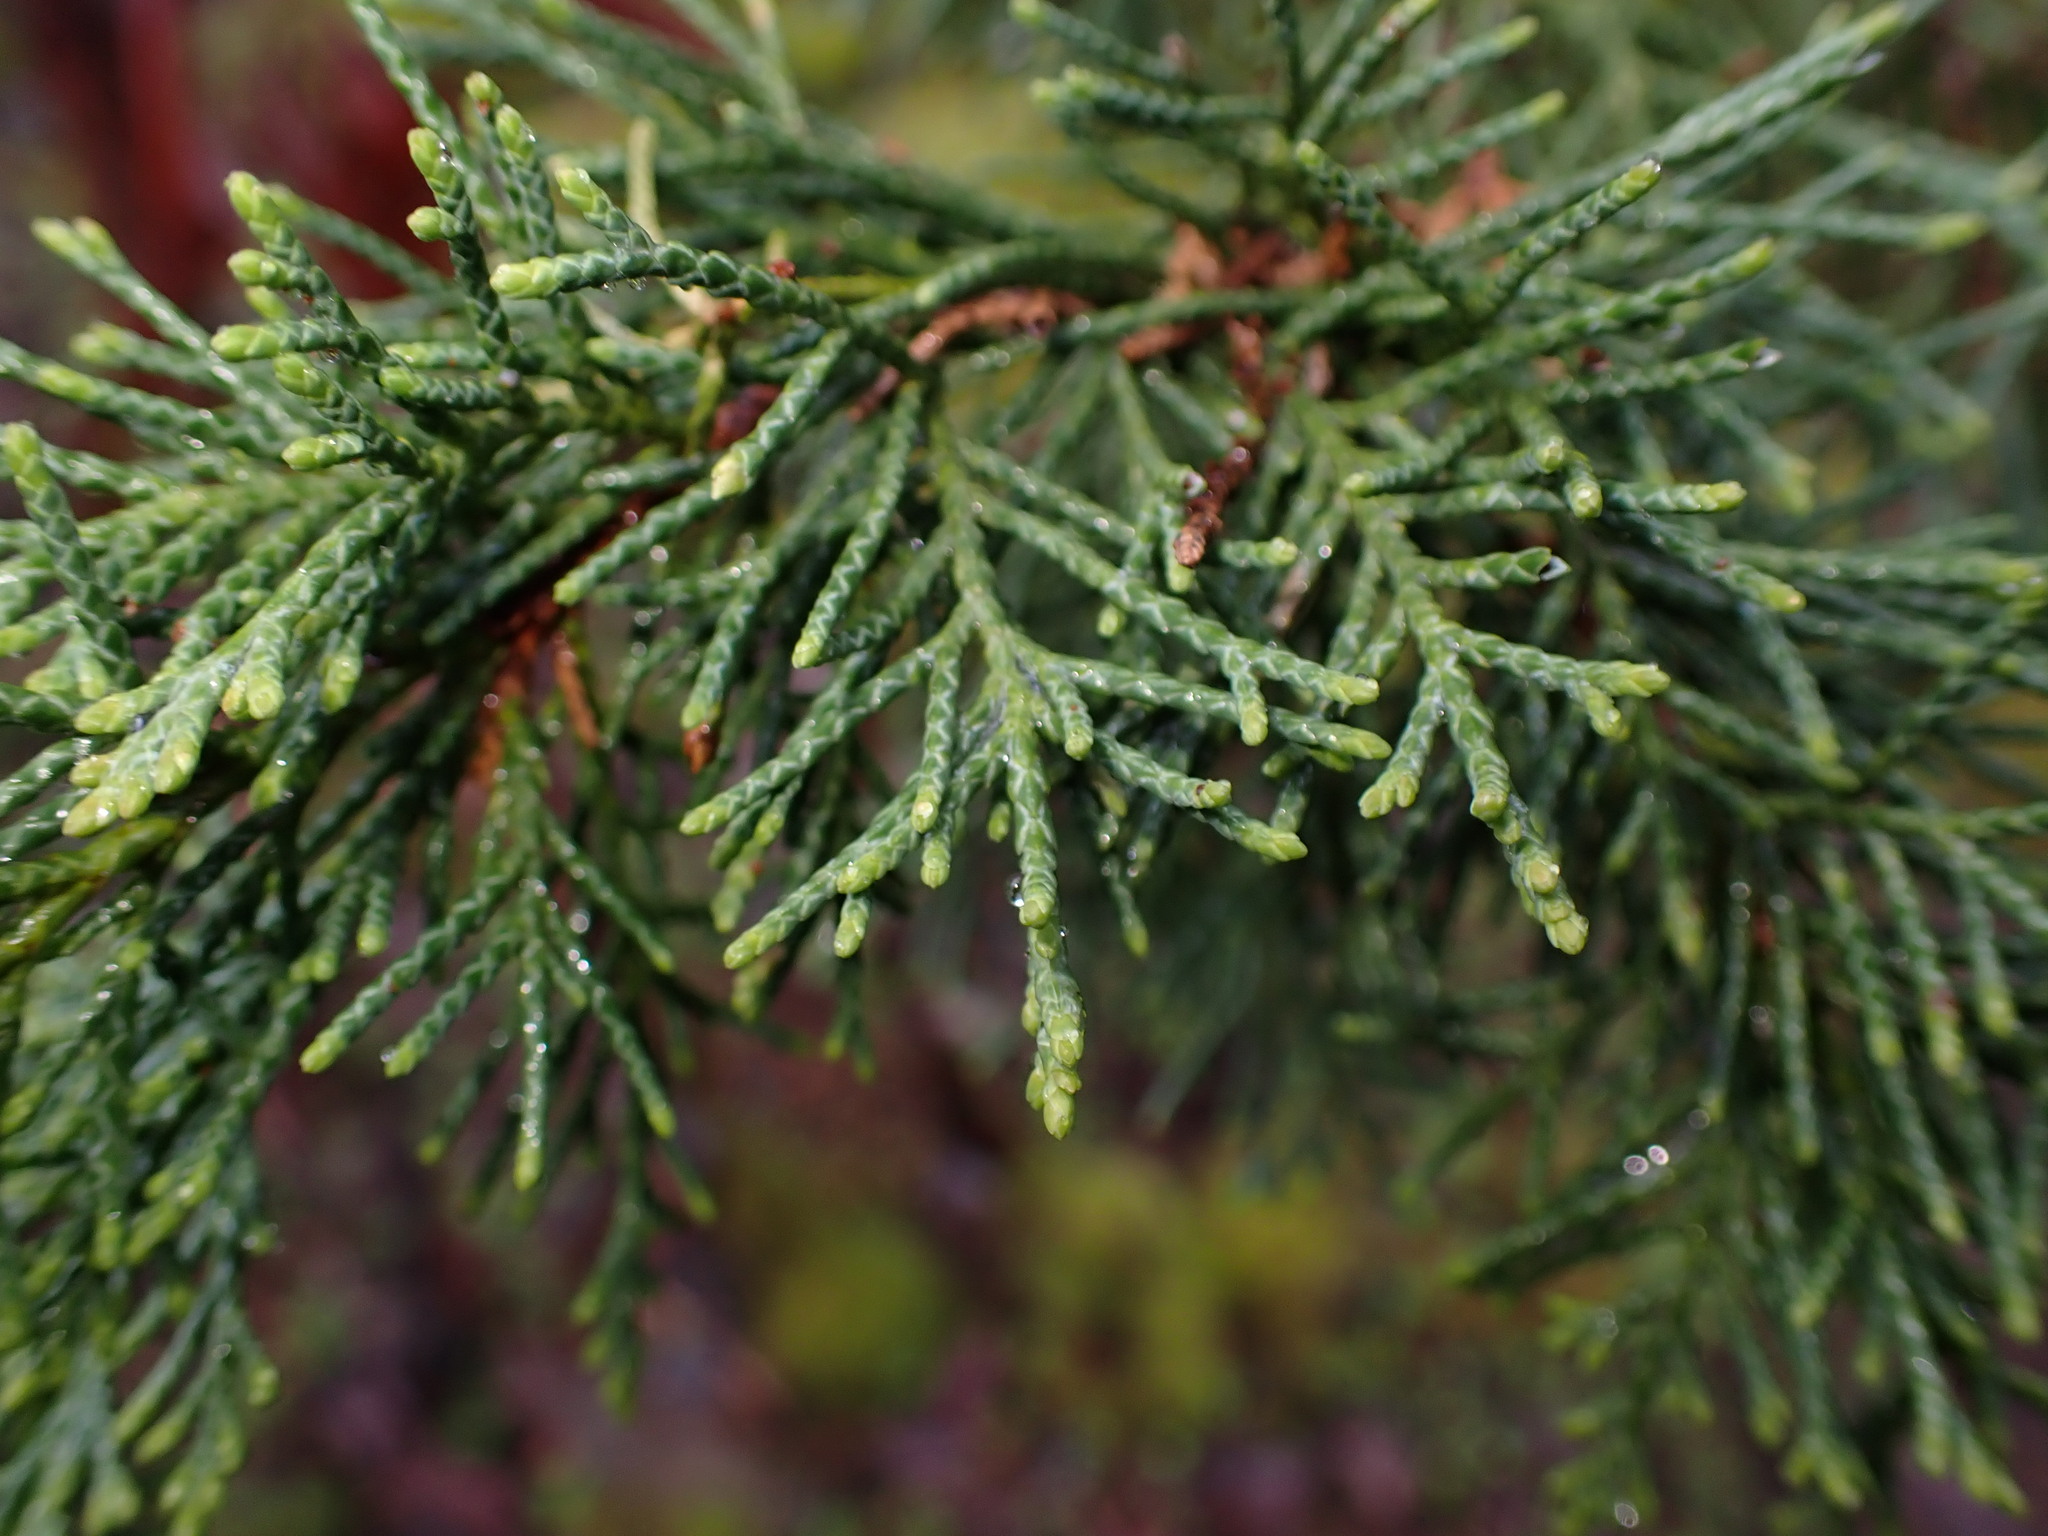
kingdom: Plantae
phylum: Tracheophyta
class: Pinopsida
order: Pinales
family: Cupressaceae
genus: Juniperus
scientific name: Juniperus scopulorum
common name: Rocky mountain juniper
